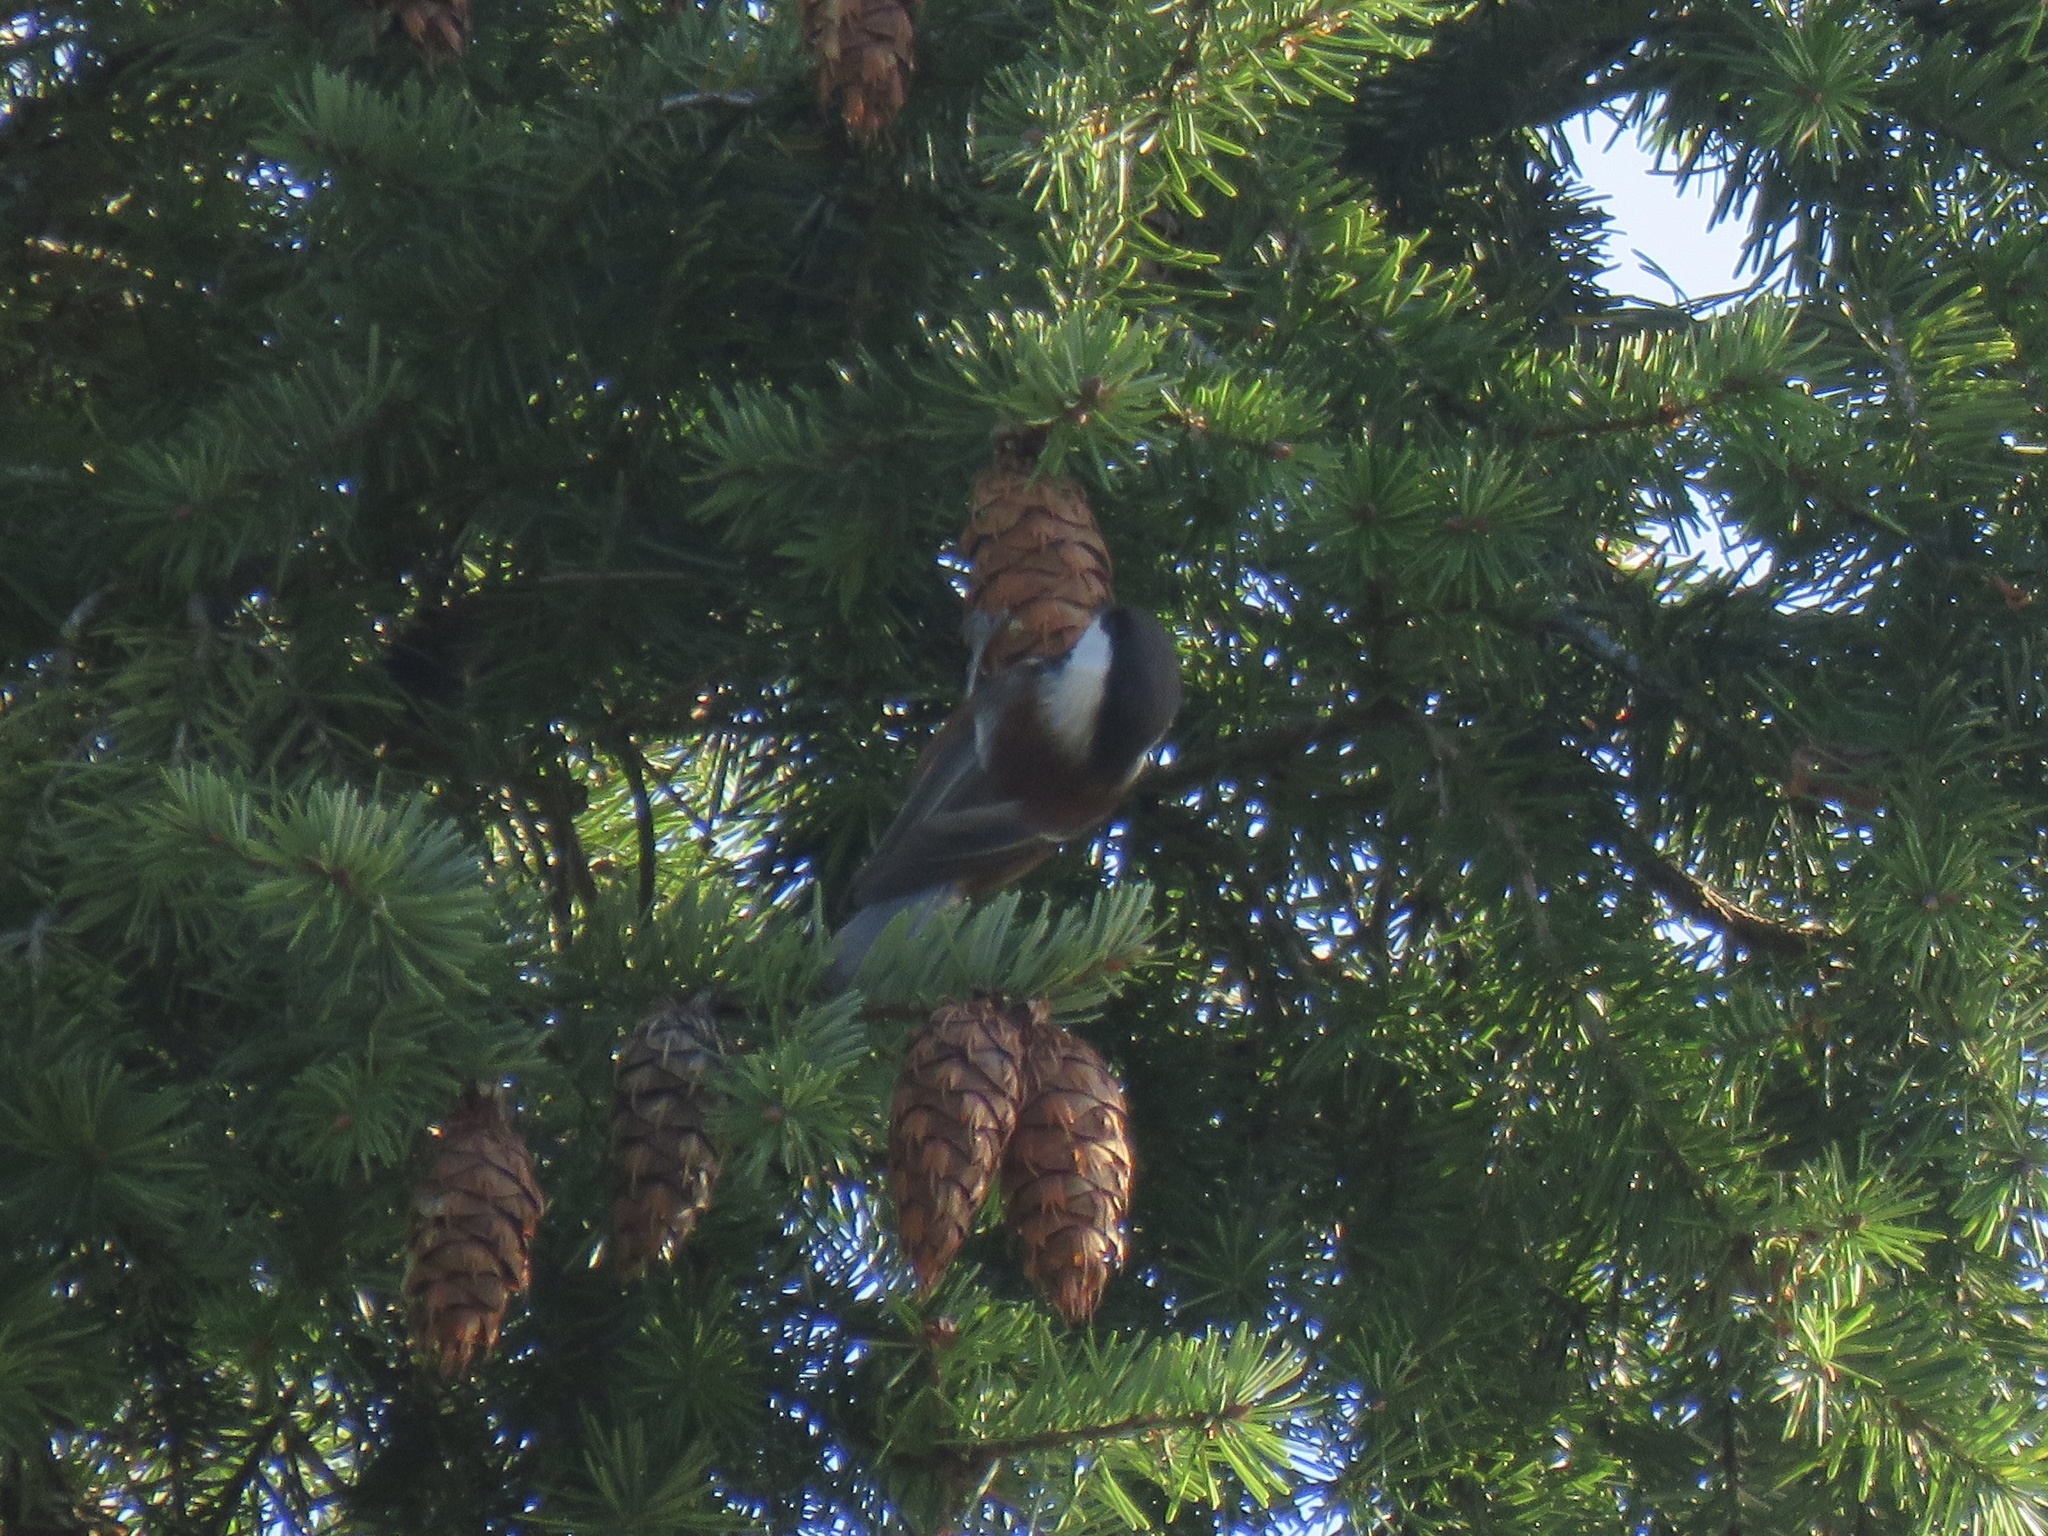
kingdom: Animalia
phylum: Chordata
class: Aves
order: Passeriformes
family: Paridae
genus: Poecile
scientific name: Poecile rufescens
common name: Chestnut-backed chickadee
